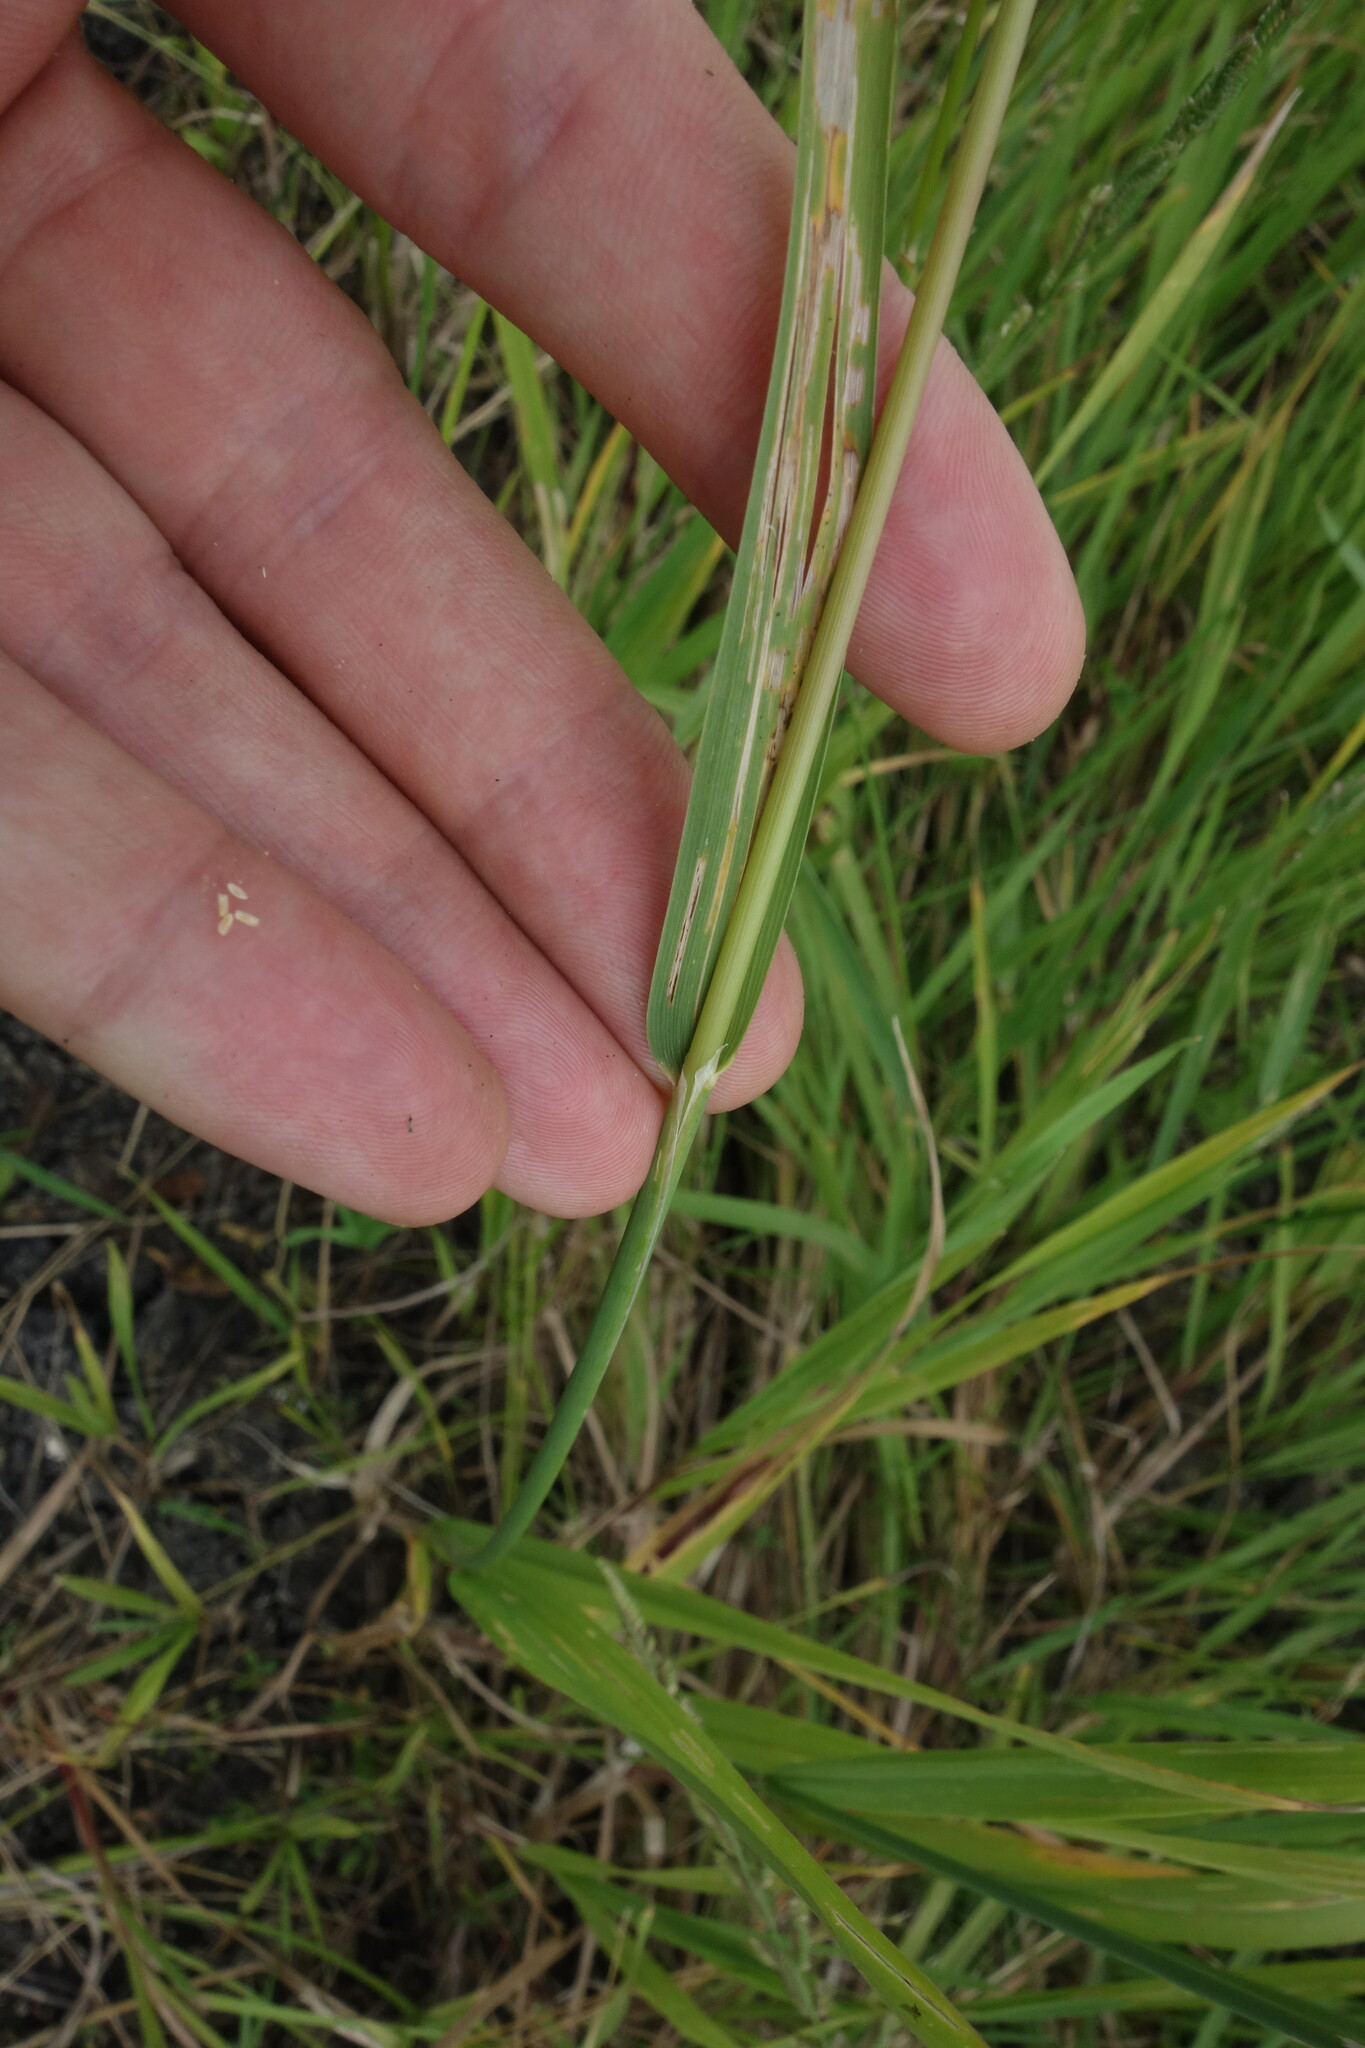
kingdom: Plantae
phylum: Tracheophyta
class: Liliopsida
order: Poales
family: Poaceae
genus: Beckmannia
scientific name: Beckmannia eruciformis
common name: European slough-grass
